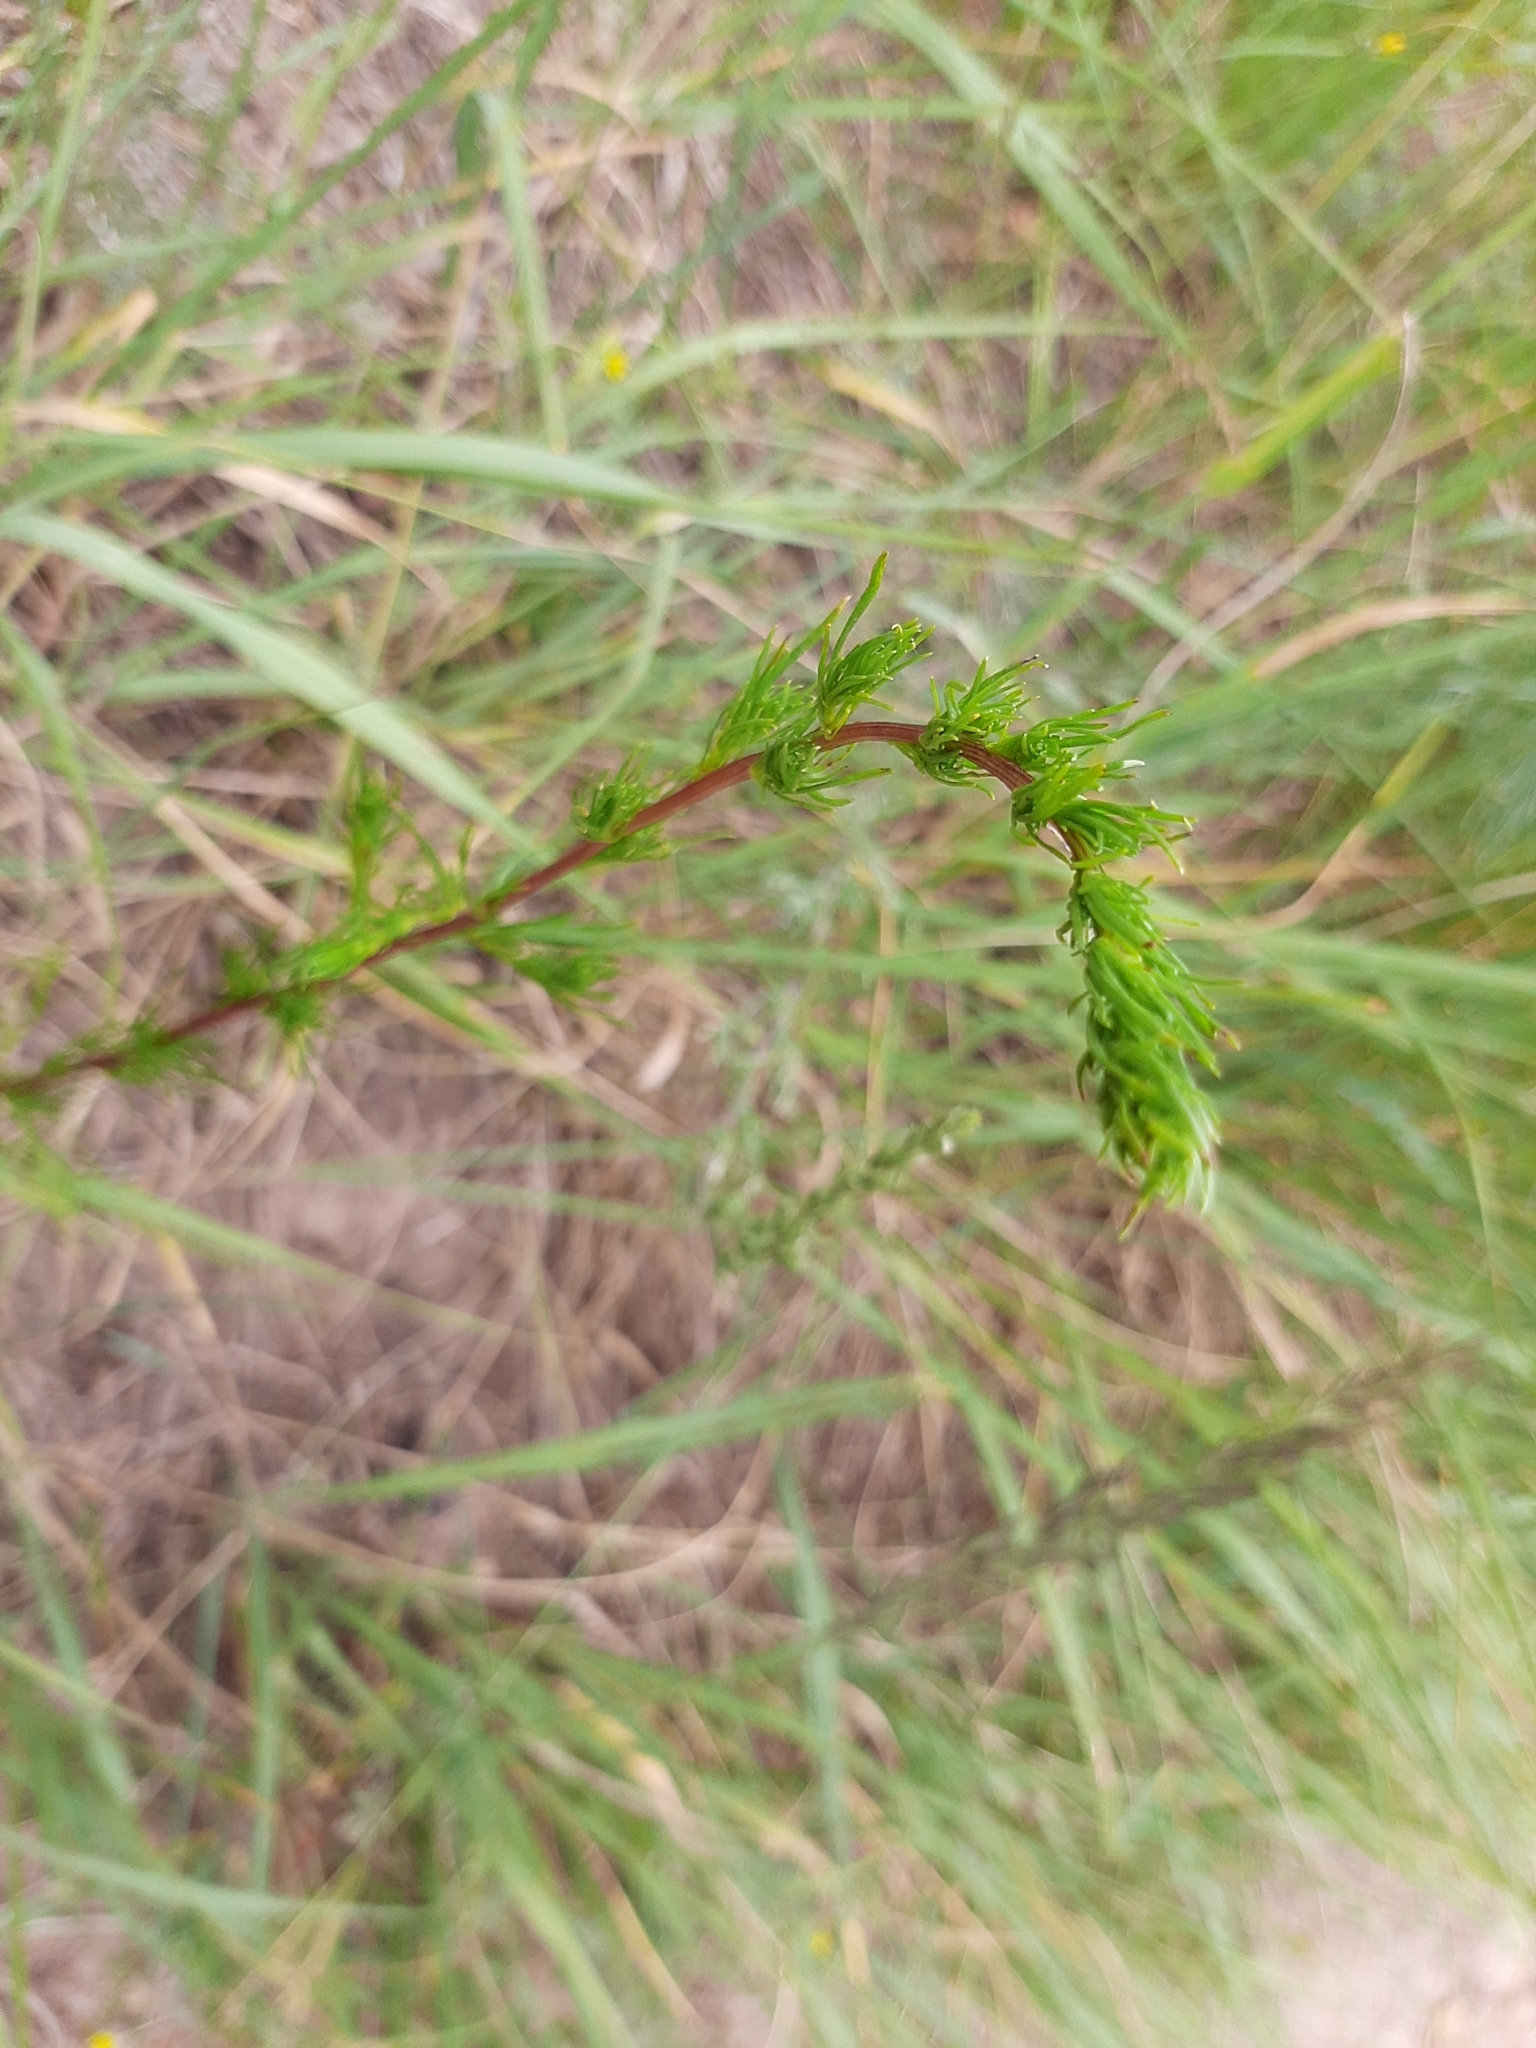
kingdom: Plantae
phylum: Tracheophyta
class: Magnoliopsida
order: Asterales
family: Asteraceae
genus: Artemisia
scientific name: Artemisia campestris
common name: Field wormwood
